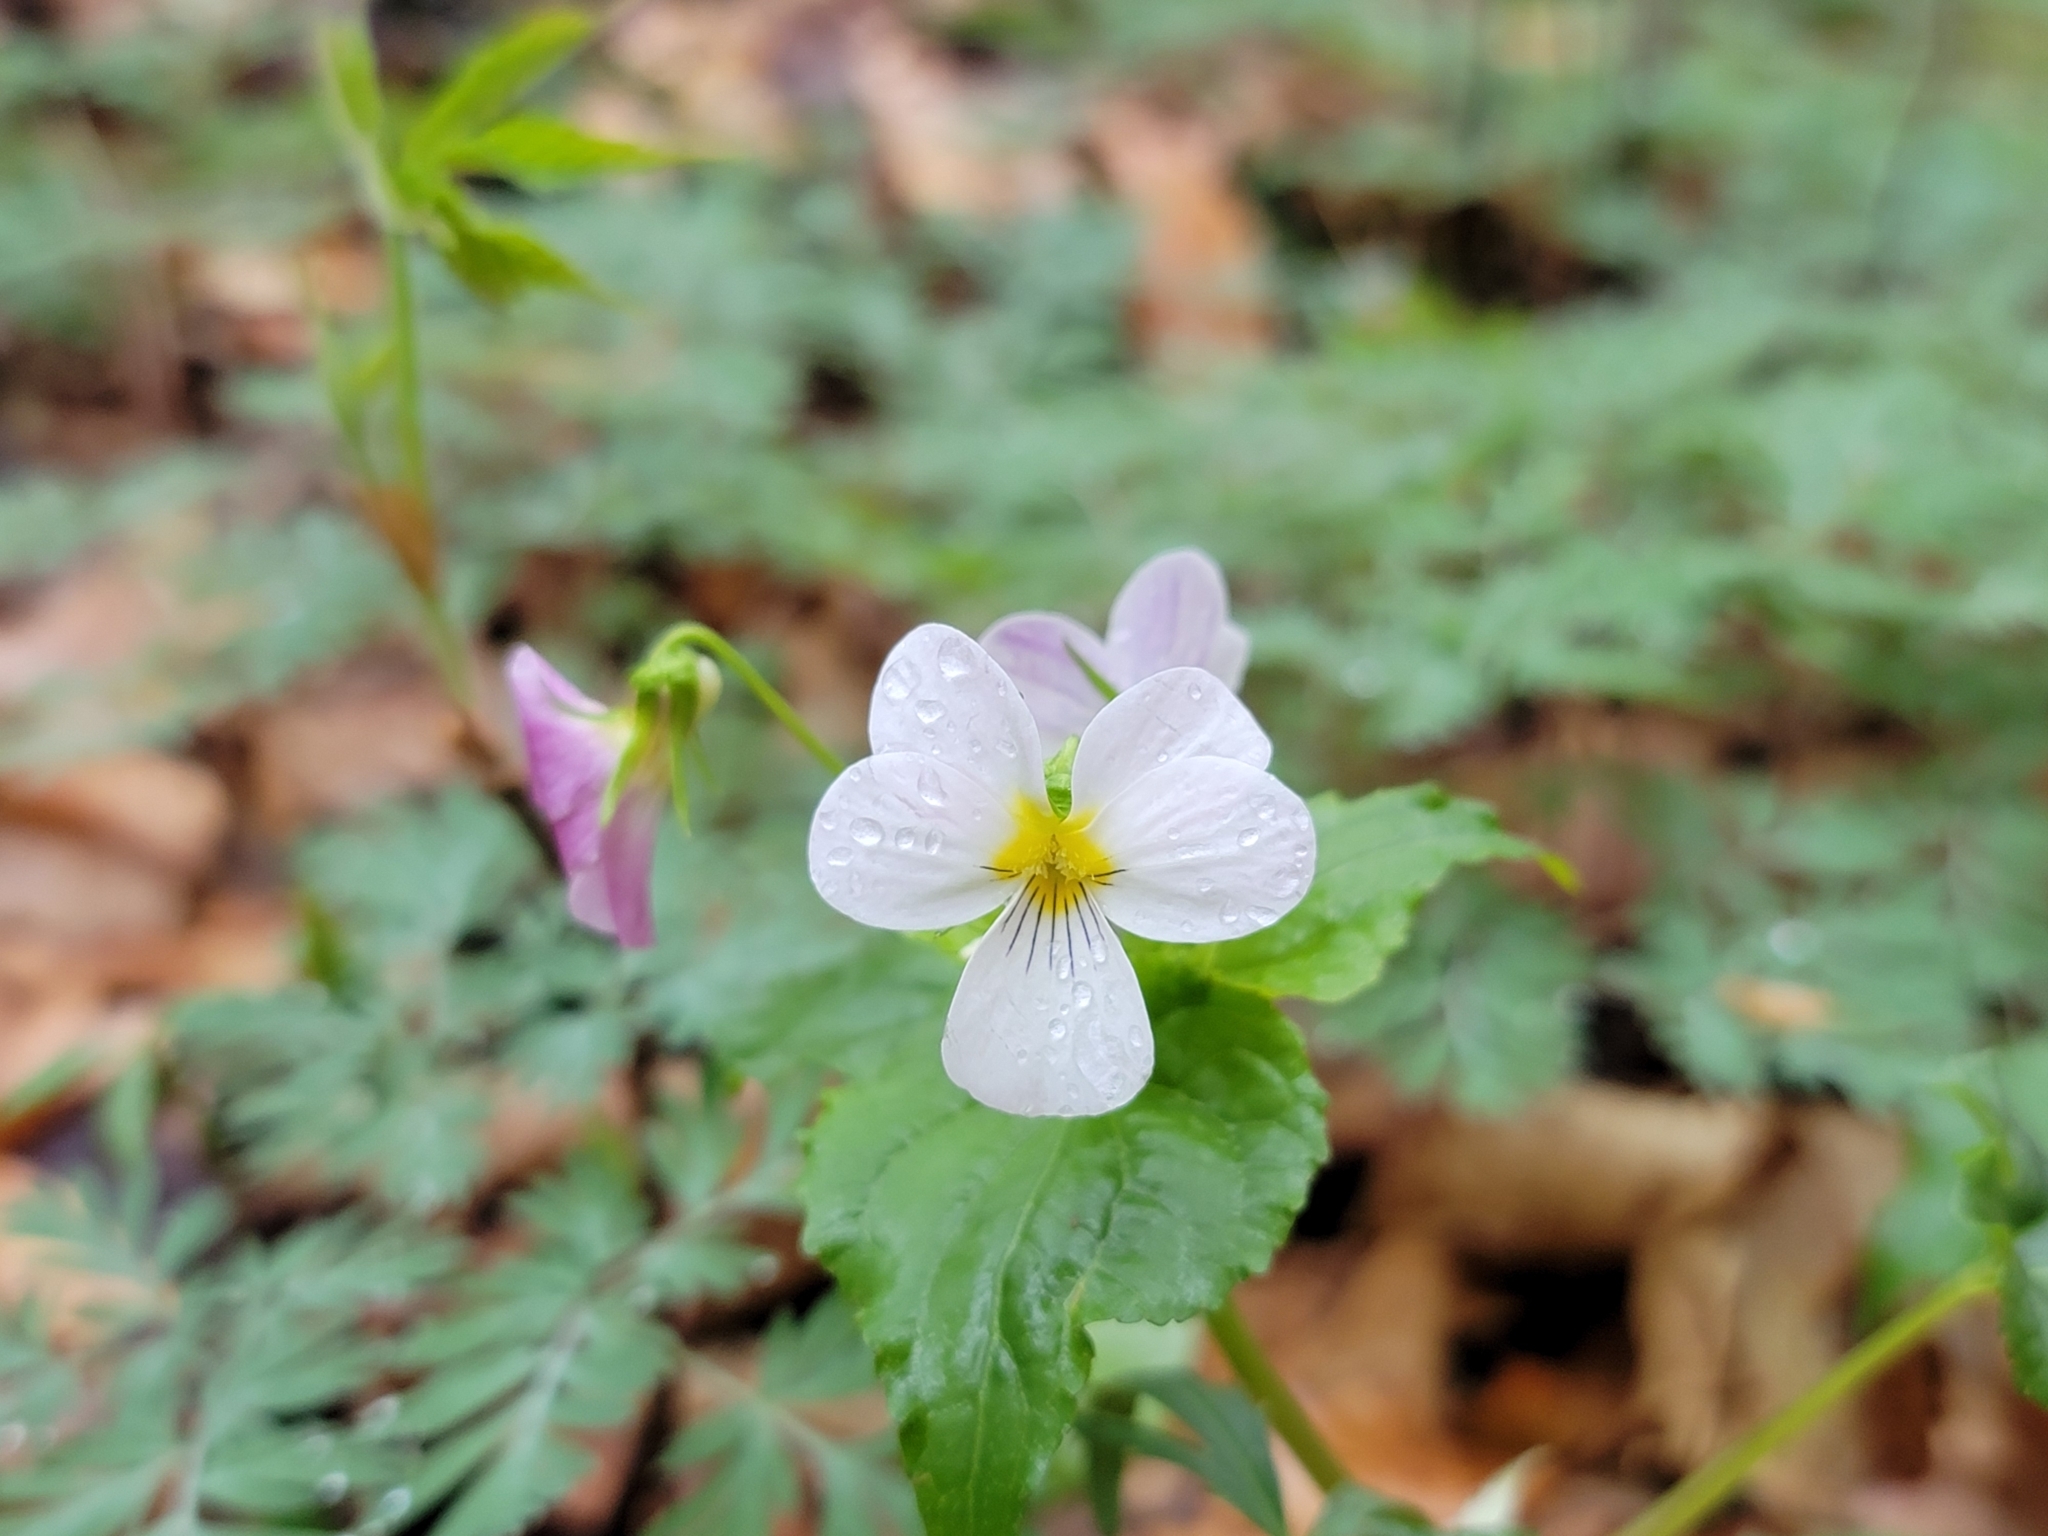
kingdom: Plantae
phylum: Tracheophyta
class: Magnoliopsida
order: Malpighiales
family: Violaceae
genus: Viola
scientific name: Viola canadensis
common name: Canada violet
